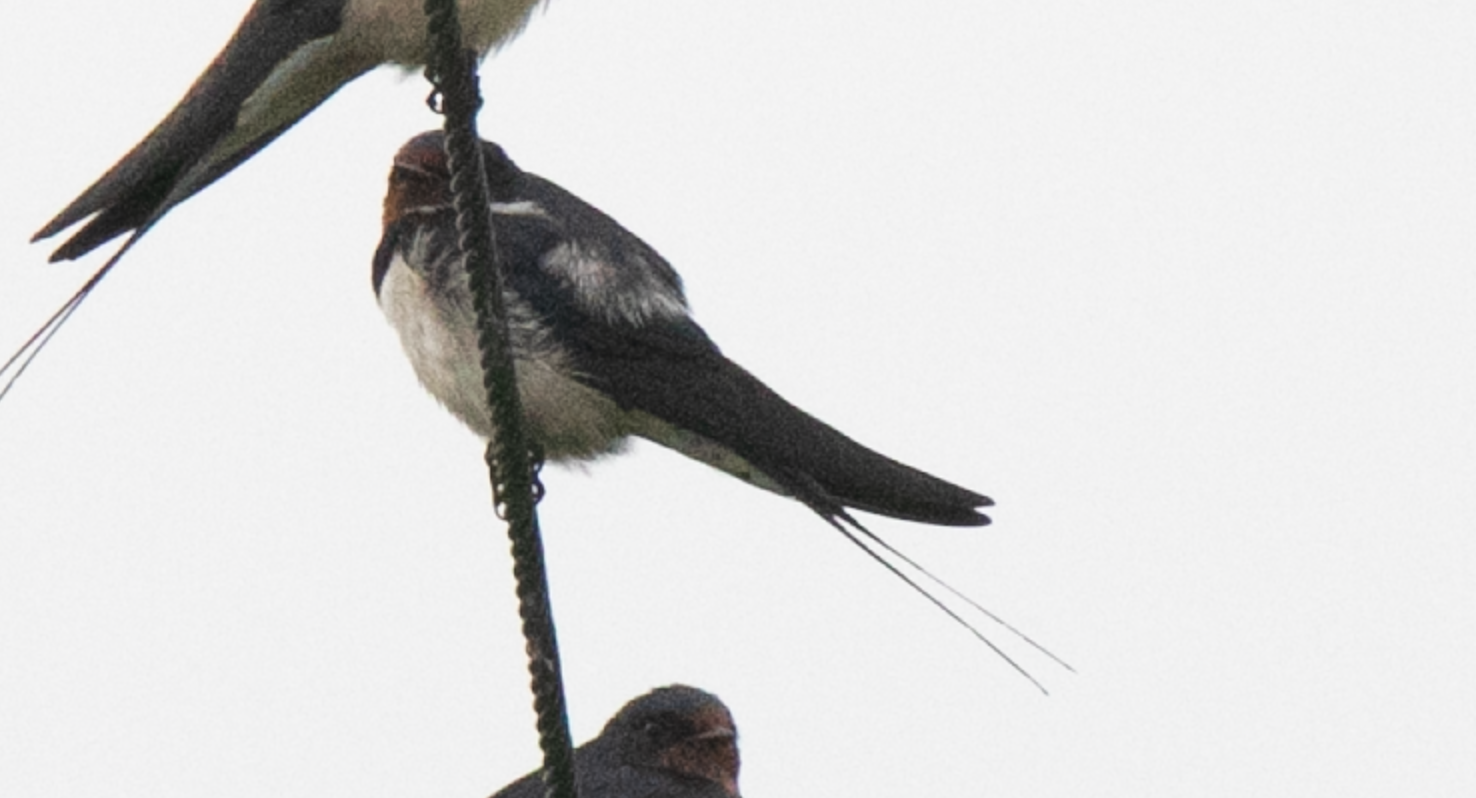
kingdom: Animalia
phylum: Chordata
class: Aves
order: Passeriformes
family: Hirundinidae
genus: Hirundo
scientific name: Hirundo rustica
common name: Barn swallow
